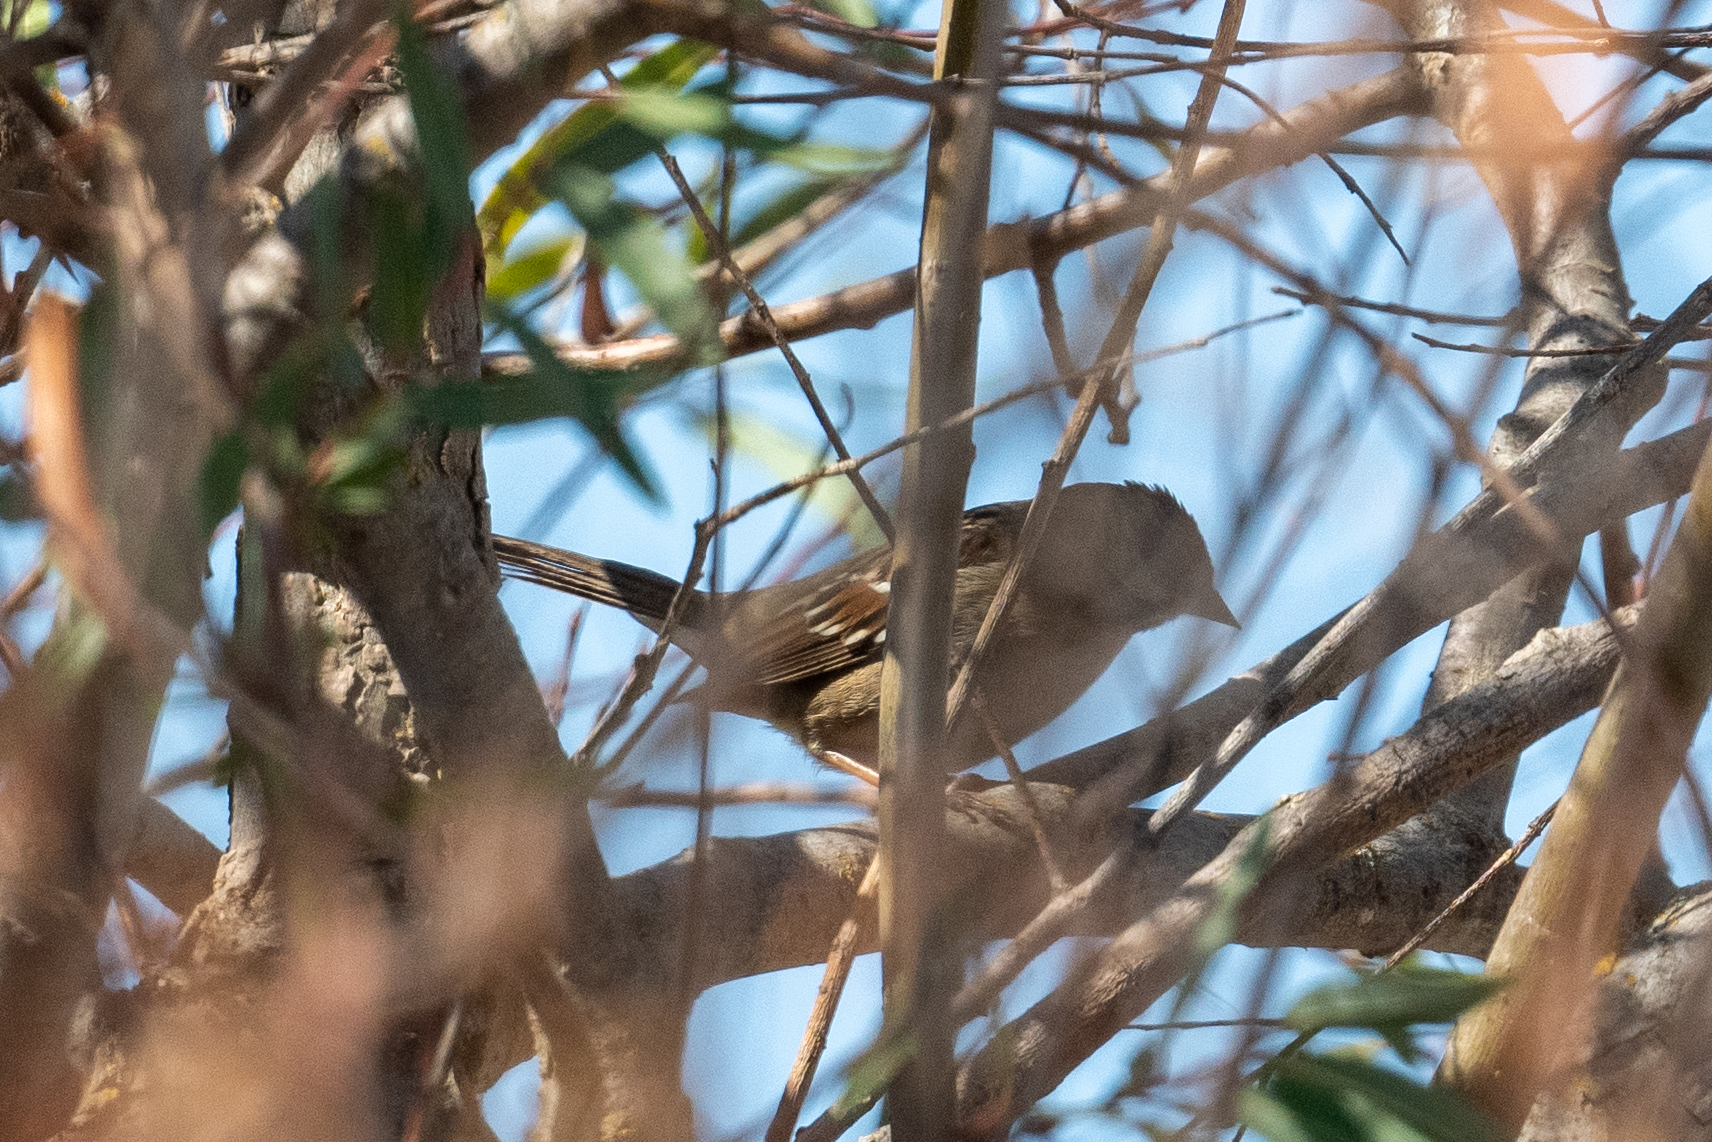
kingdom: Animalia
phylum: Chordata
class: Aves
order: Passeriformes
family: Passerellidae
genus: Zonotrichia
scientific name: Zonotrichia leucophrys
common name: White-crowned sparrow
